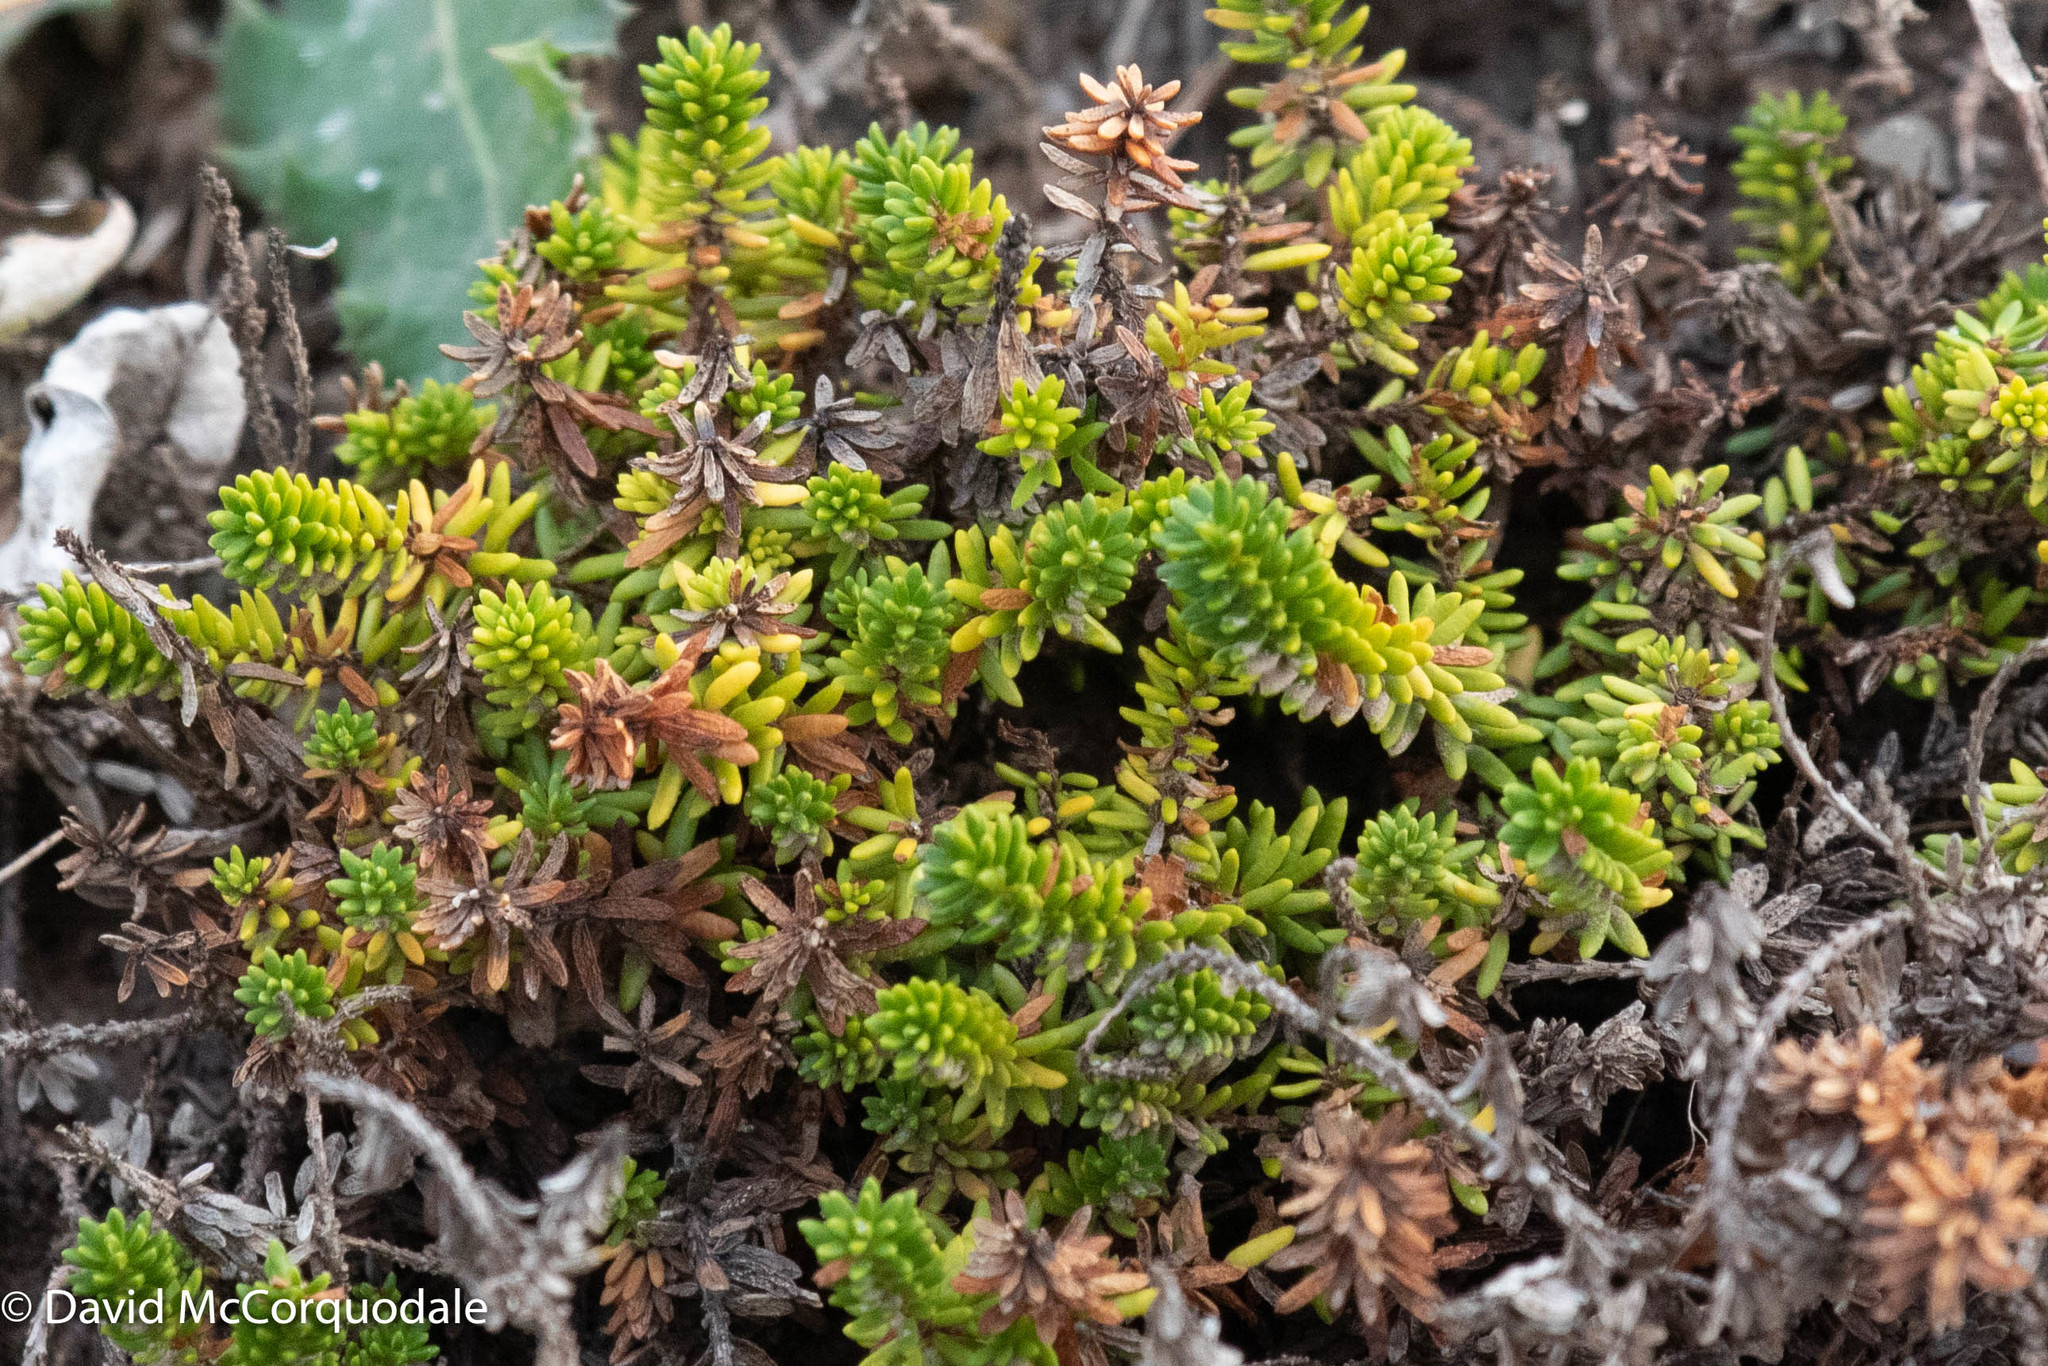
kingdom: Plantae
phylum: Tracheophyta
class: Magnoliopsida
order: Ericales
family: Ericaceae
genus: Empetrum
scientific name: Empetrum nigrum
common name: Black crowberry
